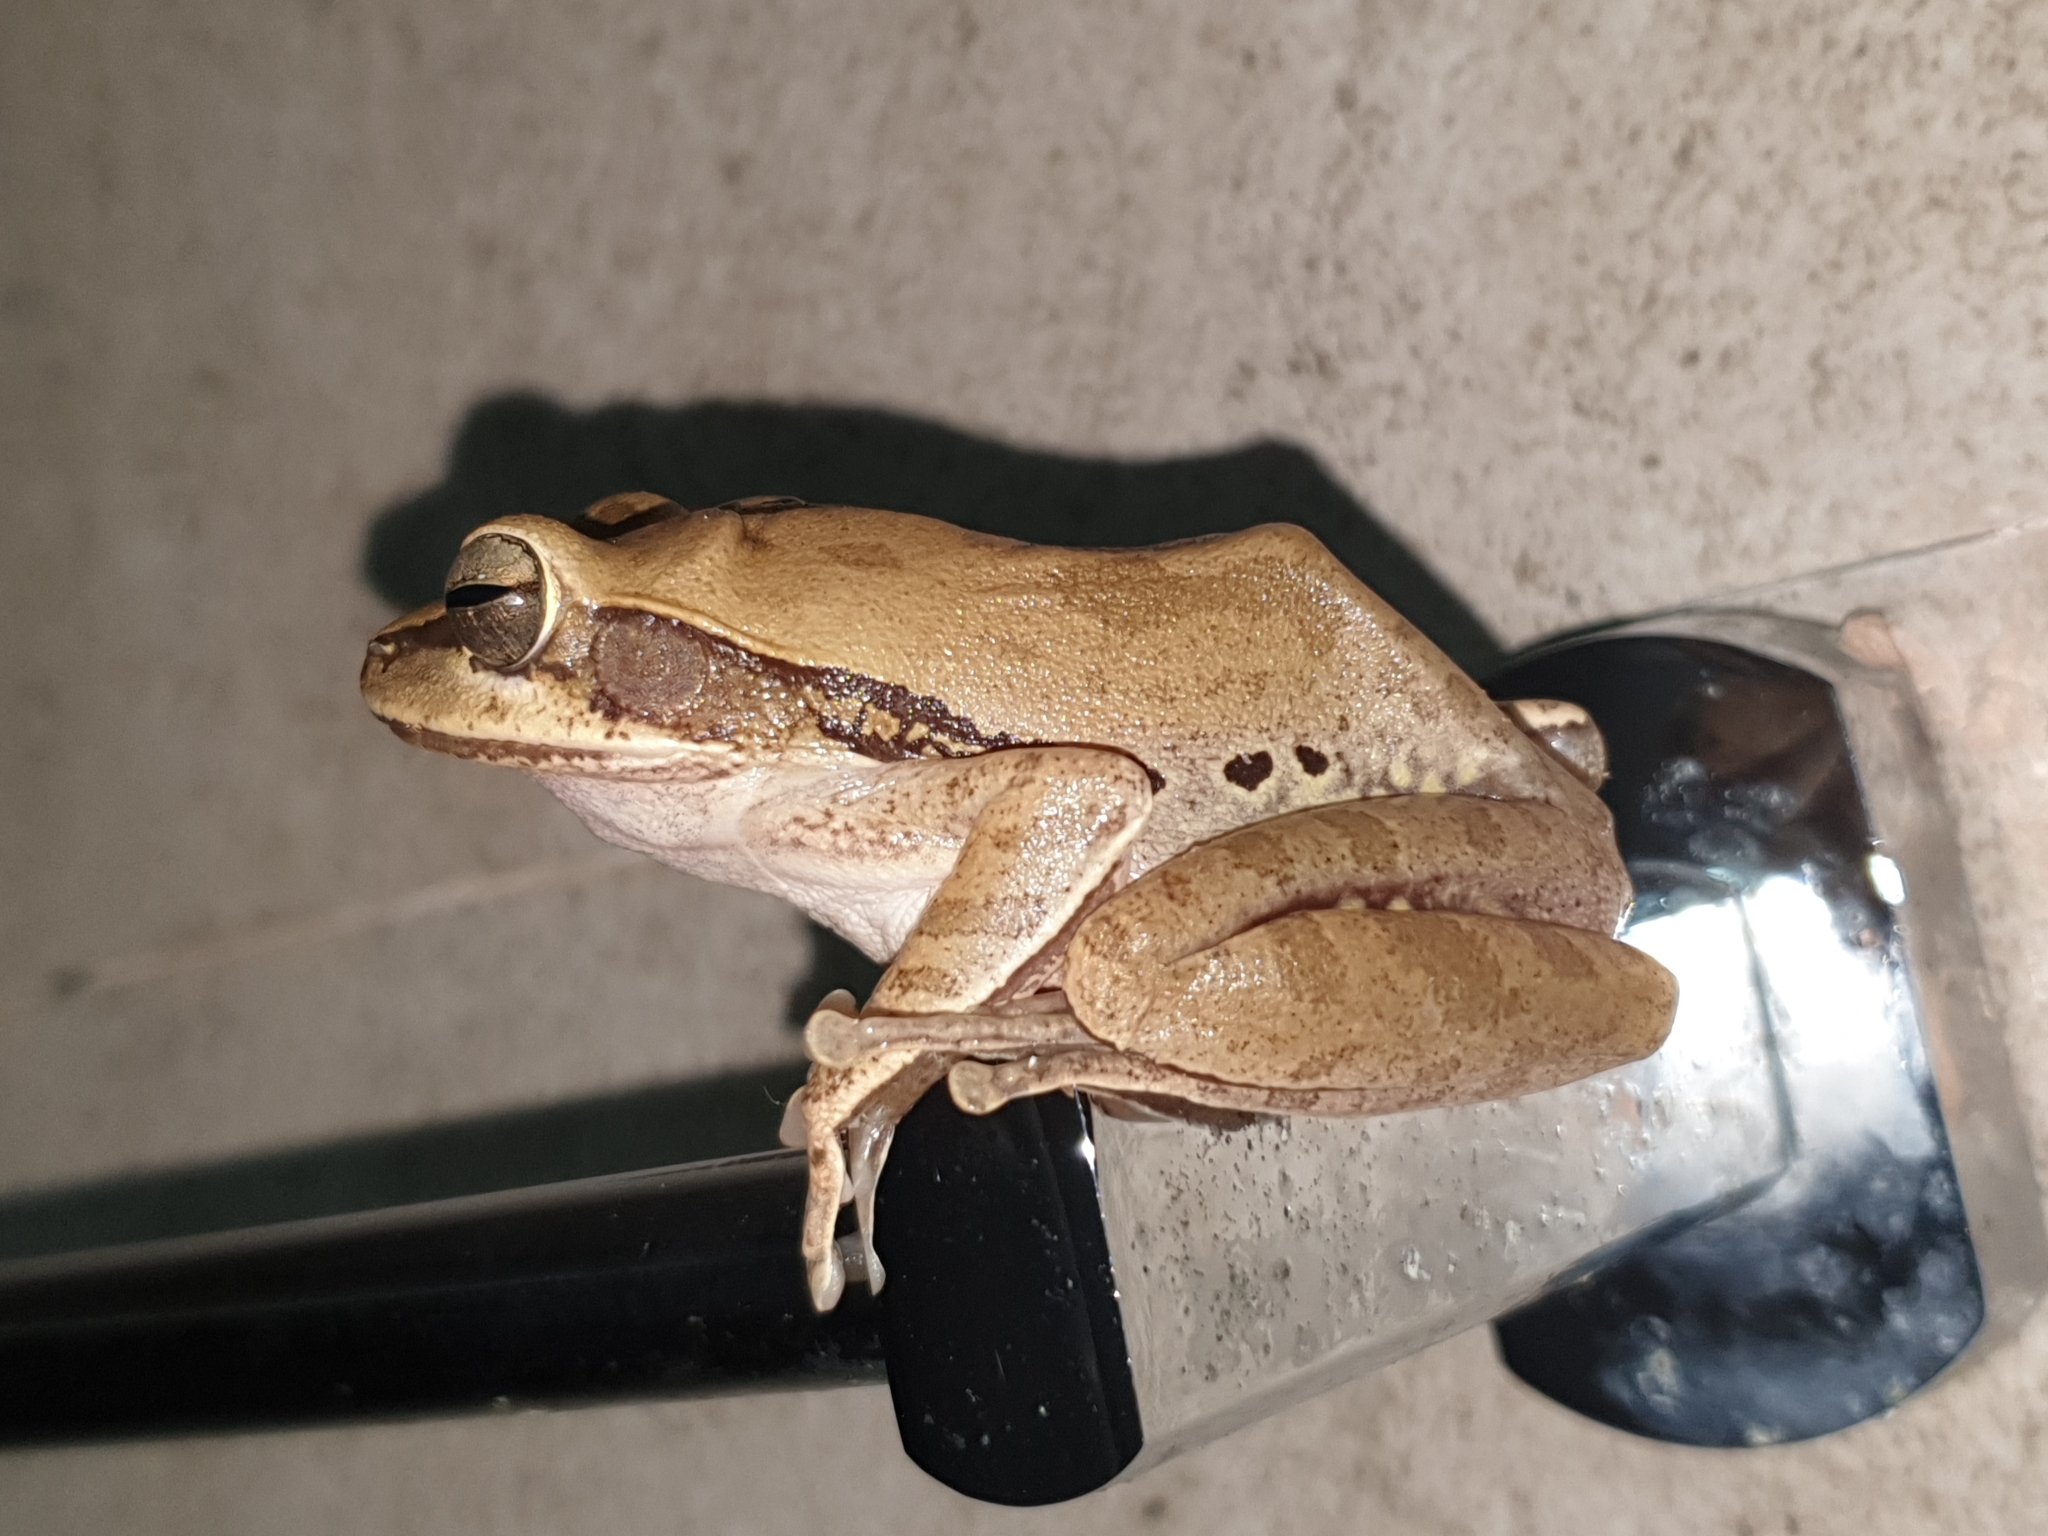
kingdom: Animalia
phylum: Chordata
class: Amphibia
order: Anura
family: Rhacophoridae
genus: Polypedates
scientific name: Polypedates maculatus
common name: Himalayan tree frog
